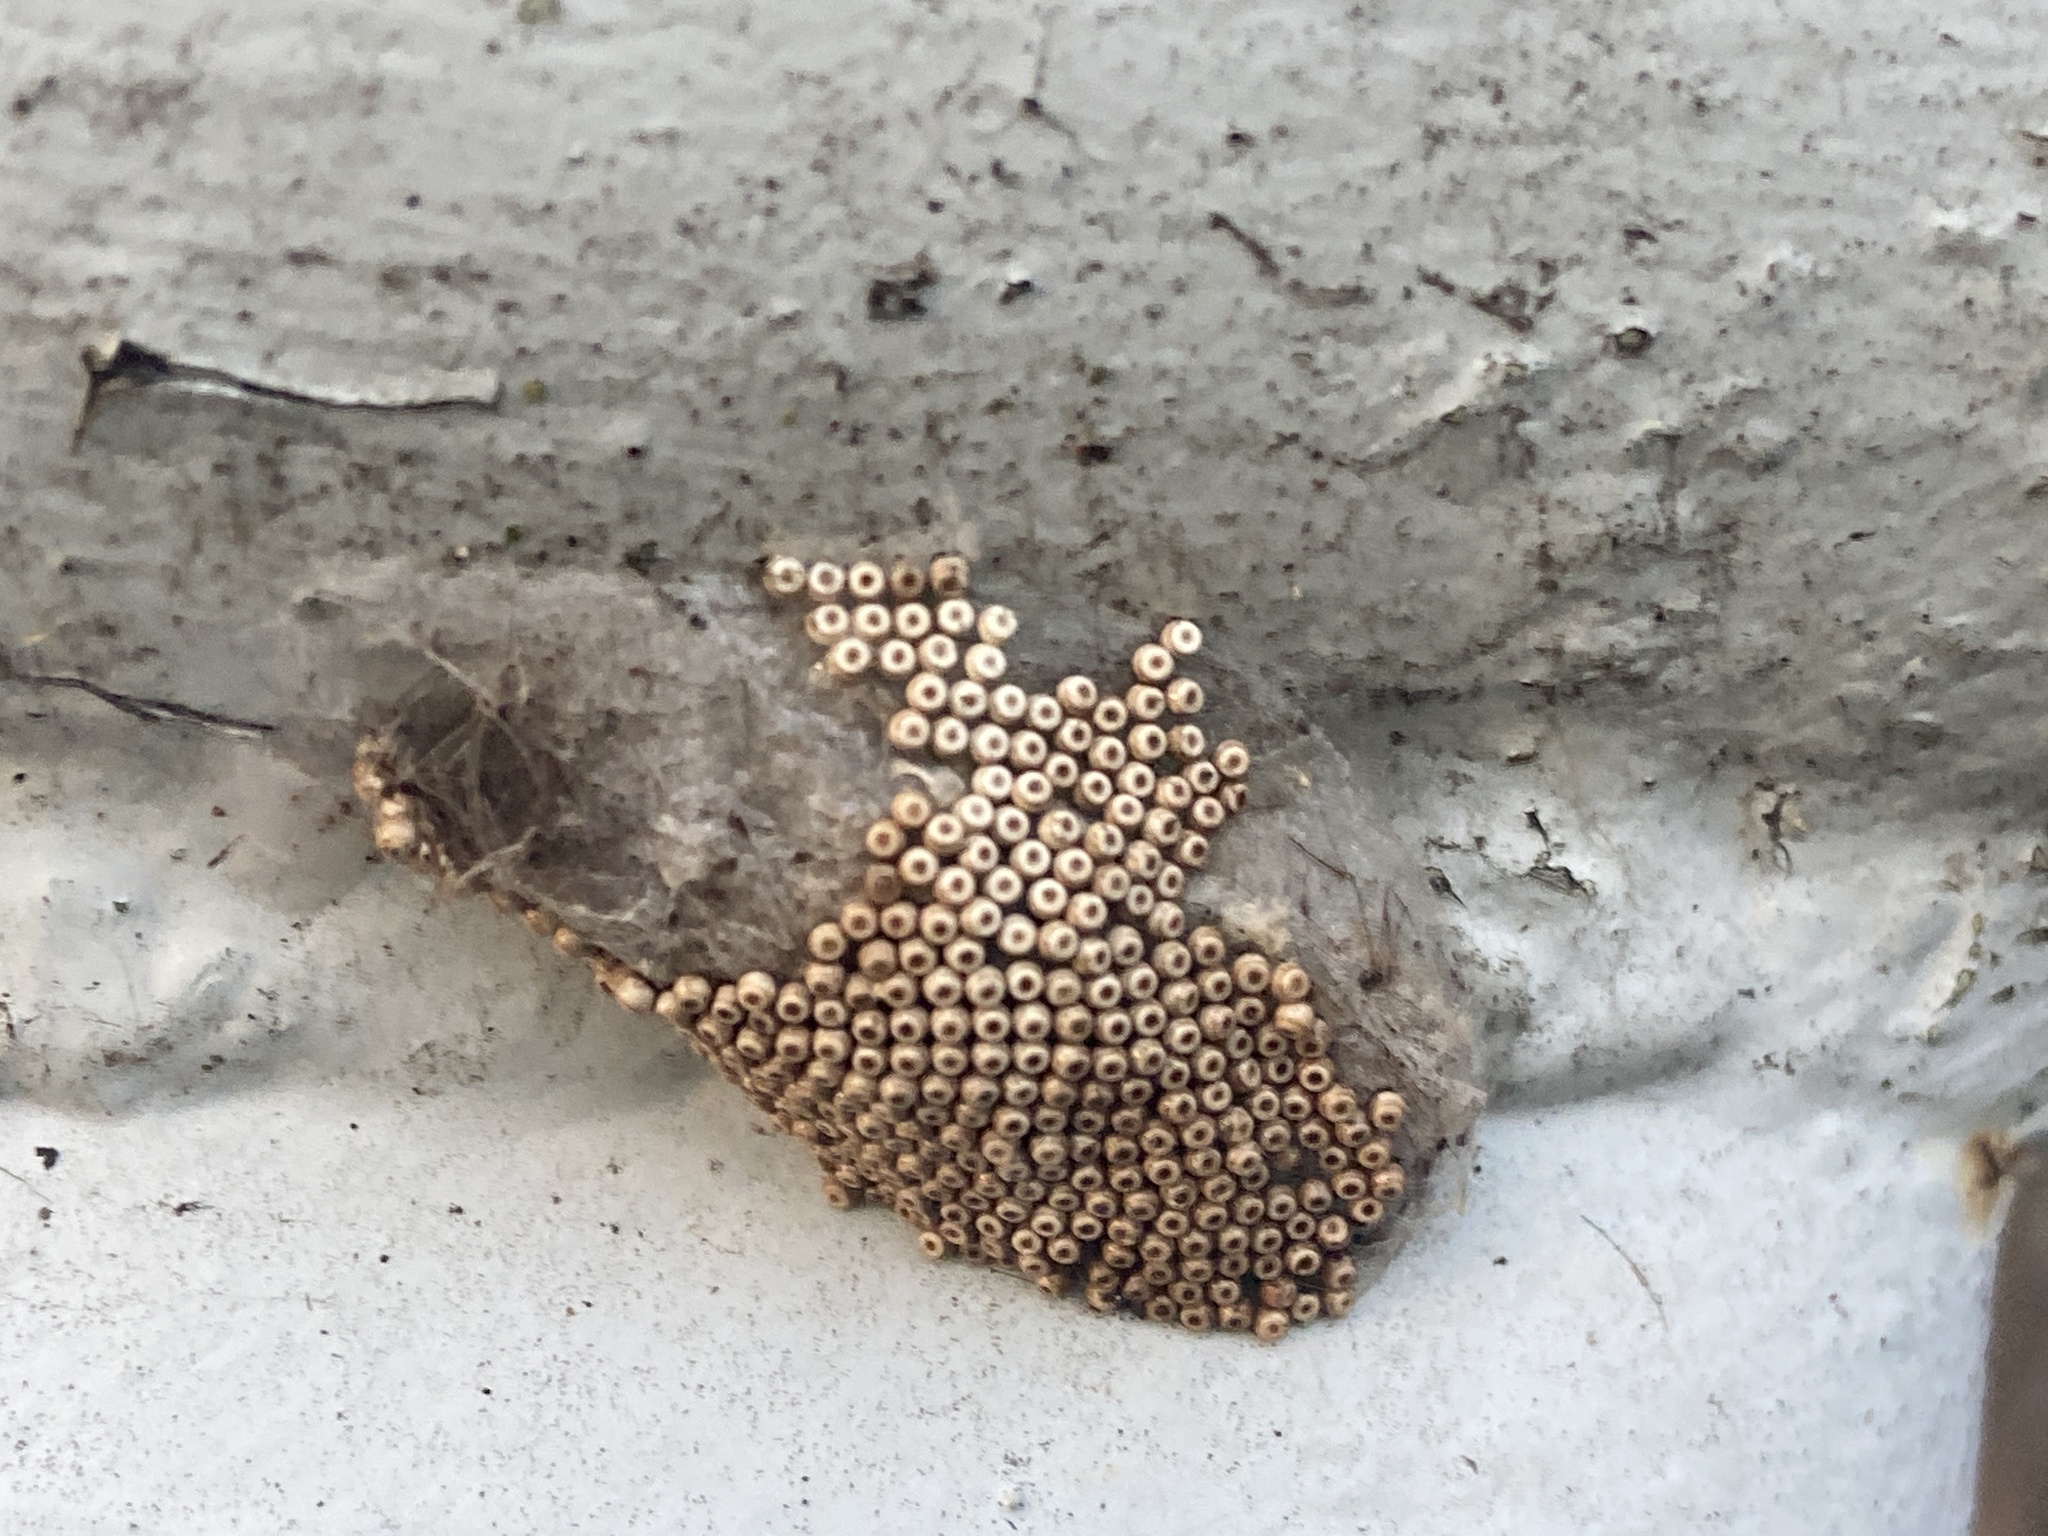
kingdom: Animalia
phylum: Arthropoda
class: Insecta
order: Lepidoptera
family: Erebidae
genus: Orgyia
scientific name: Orgyia antiqua
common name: Vapourer
